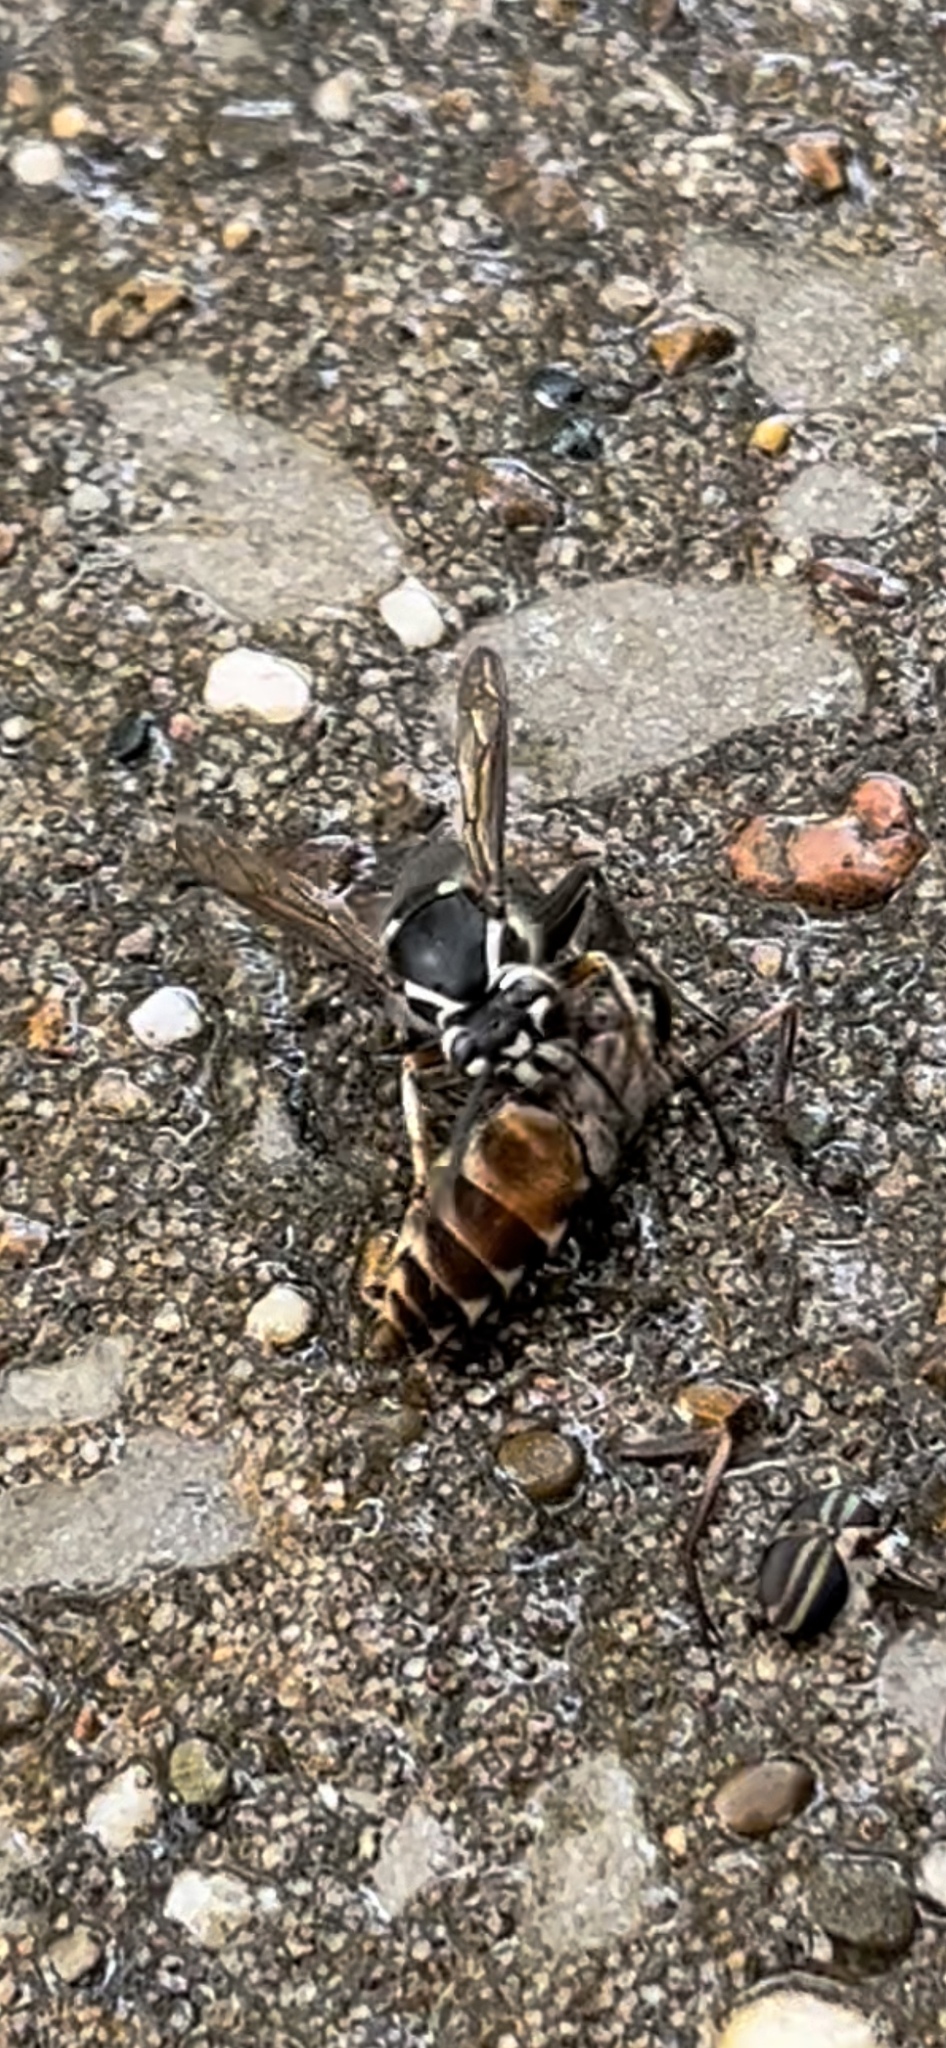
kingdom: Animalia
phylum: Arthropoda
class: Insecta
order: Hymenoptera
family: Vespidae
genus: Dolichovespula
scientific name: Dolichovespula maculata
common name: Bald-faced hornet
